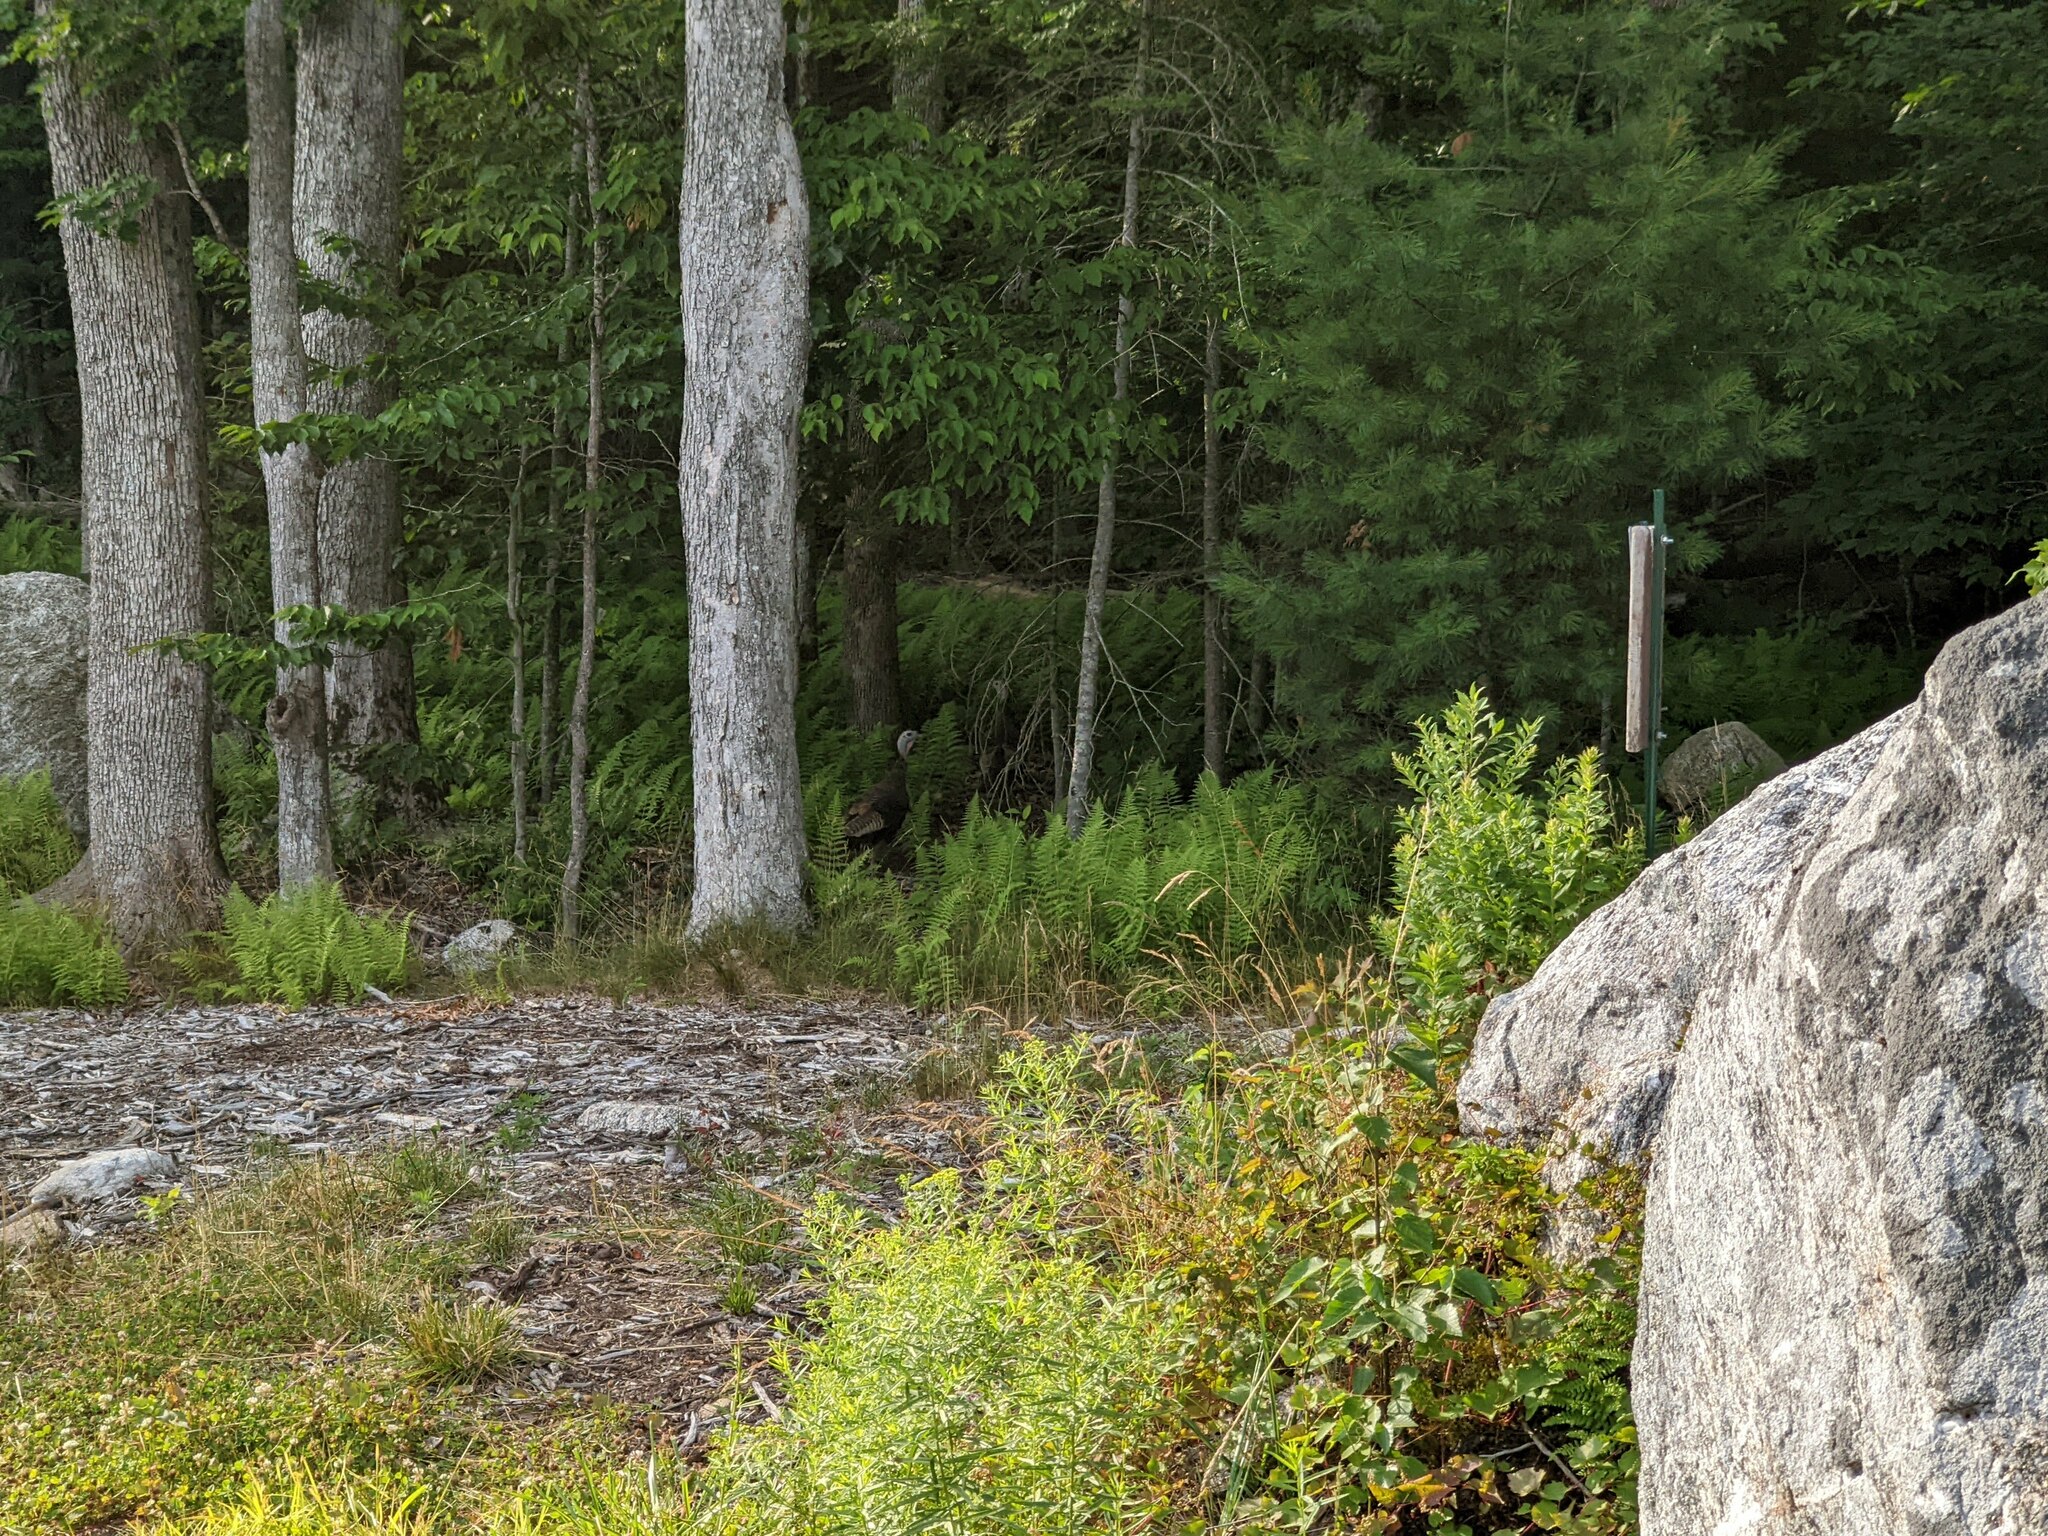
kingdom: Animalia
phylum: Chordata
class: Aves
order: Galliformes
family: Phasianidae
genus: Meleagris
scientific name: Meleagris gallopavo
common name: Wild turkey
